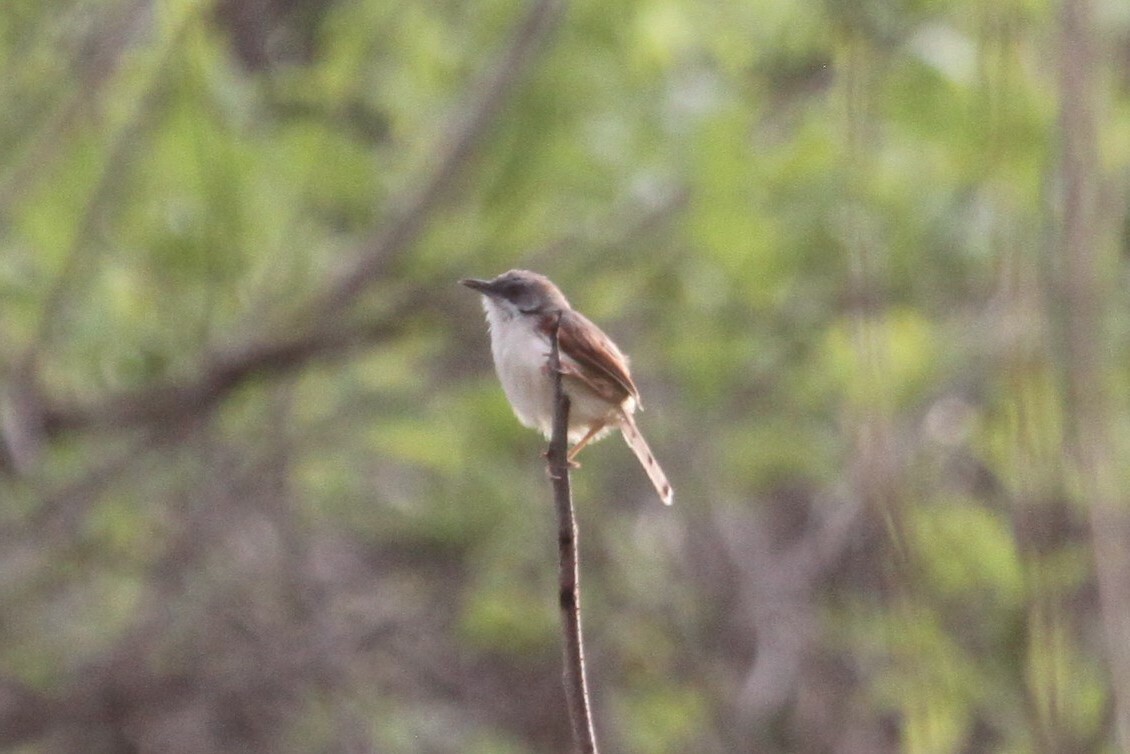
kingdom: Animalia
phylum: Chordata
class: Aves
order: Passeriformes
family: Cisticolidae
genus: Heliolais
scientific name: Heliolais erythropterus
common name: Red-winged warbler
